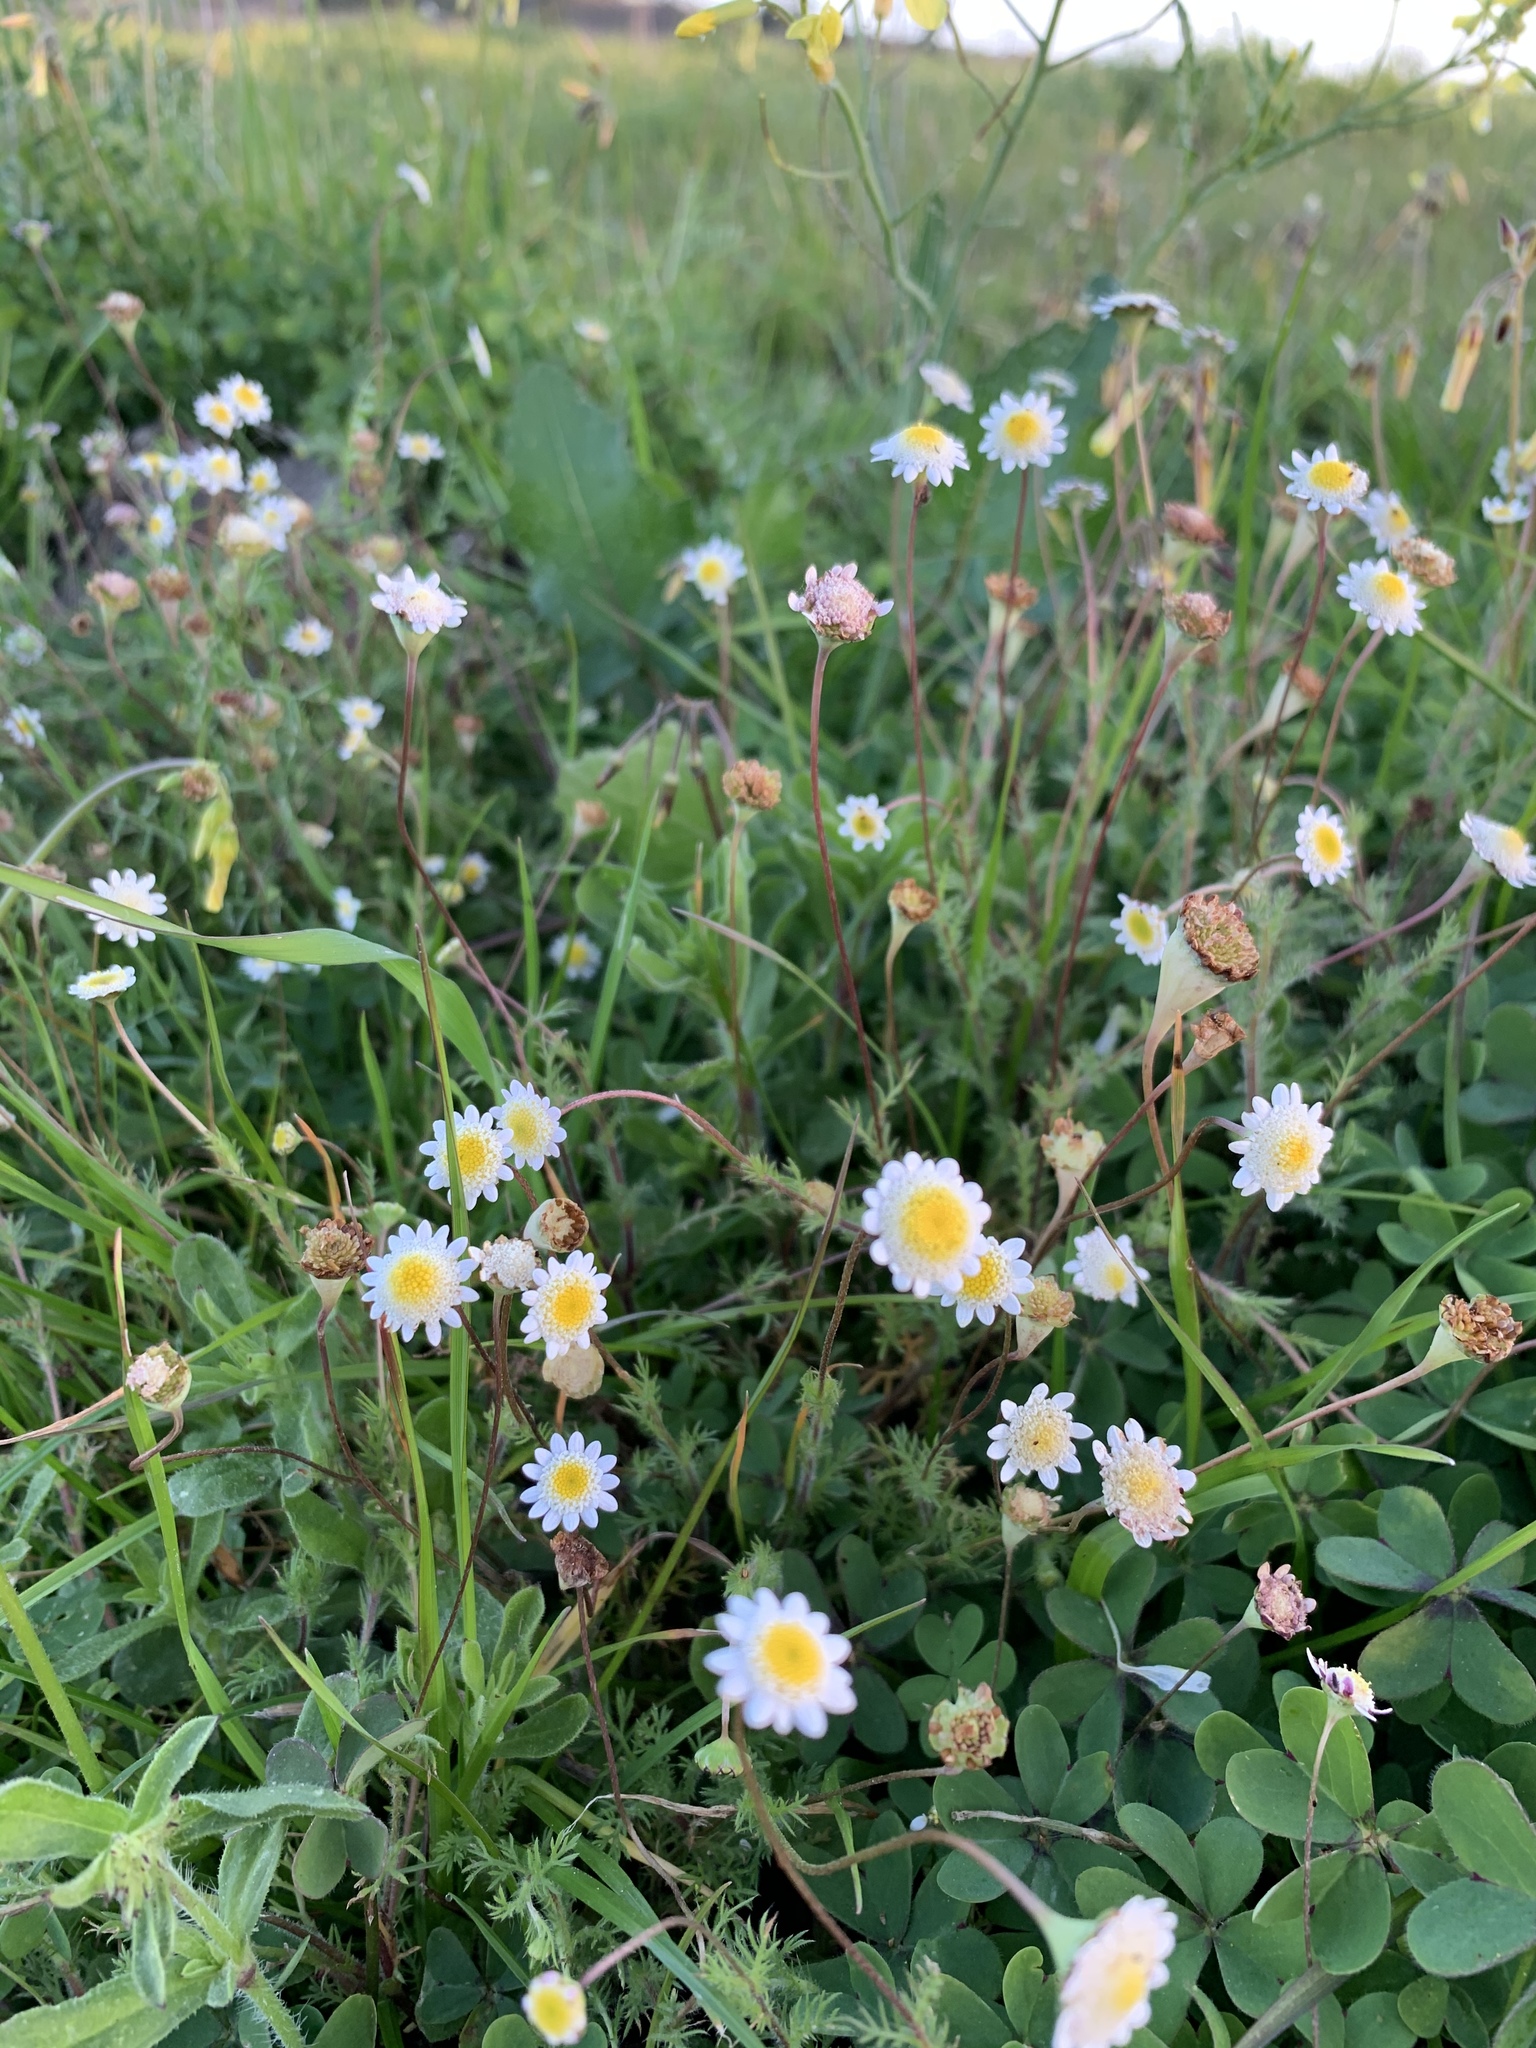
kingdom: Plantae
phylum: Tracheophyta
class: Magnoliopsida
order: Asterales
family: Asteraceae
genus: Cotula
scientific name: Cotula turbinata
